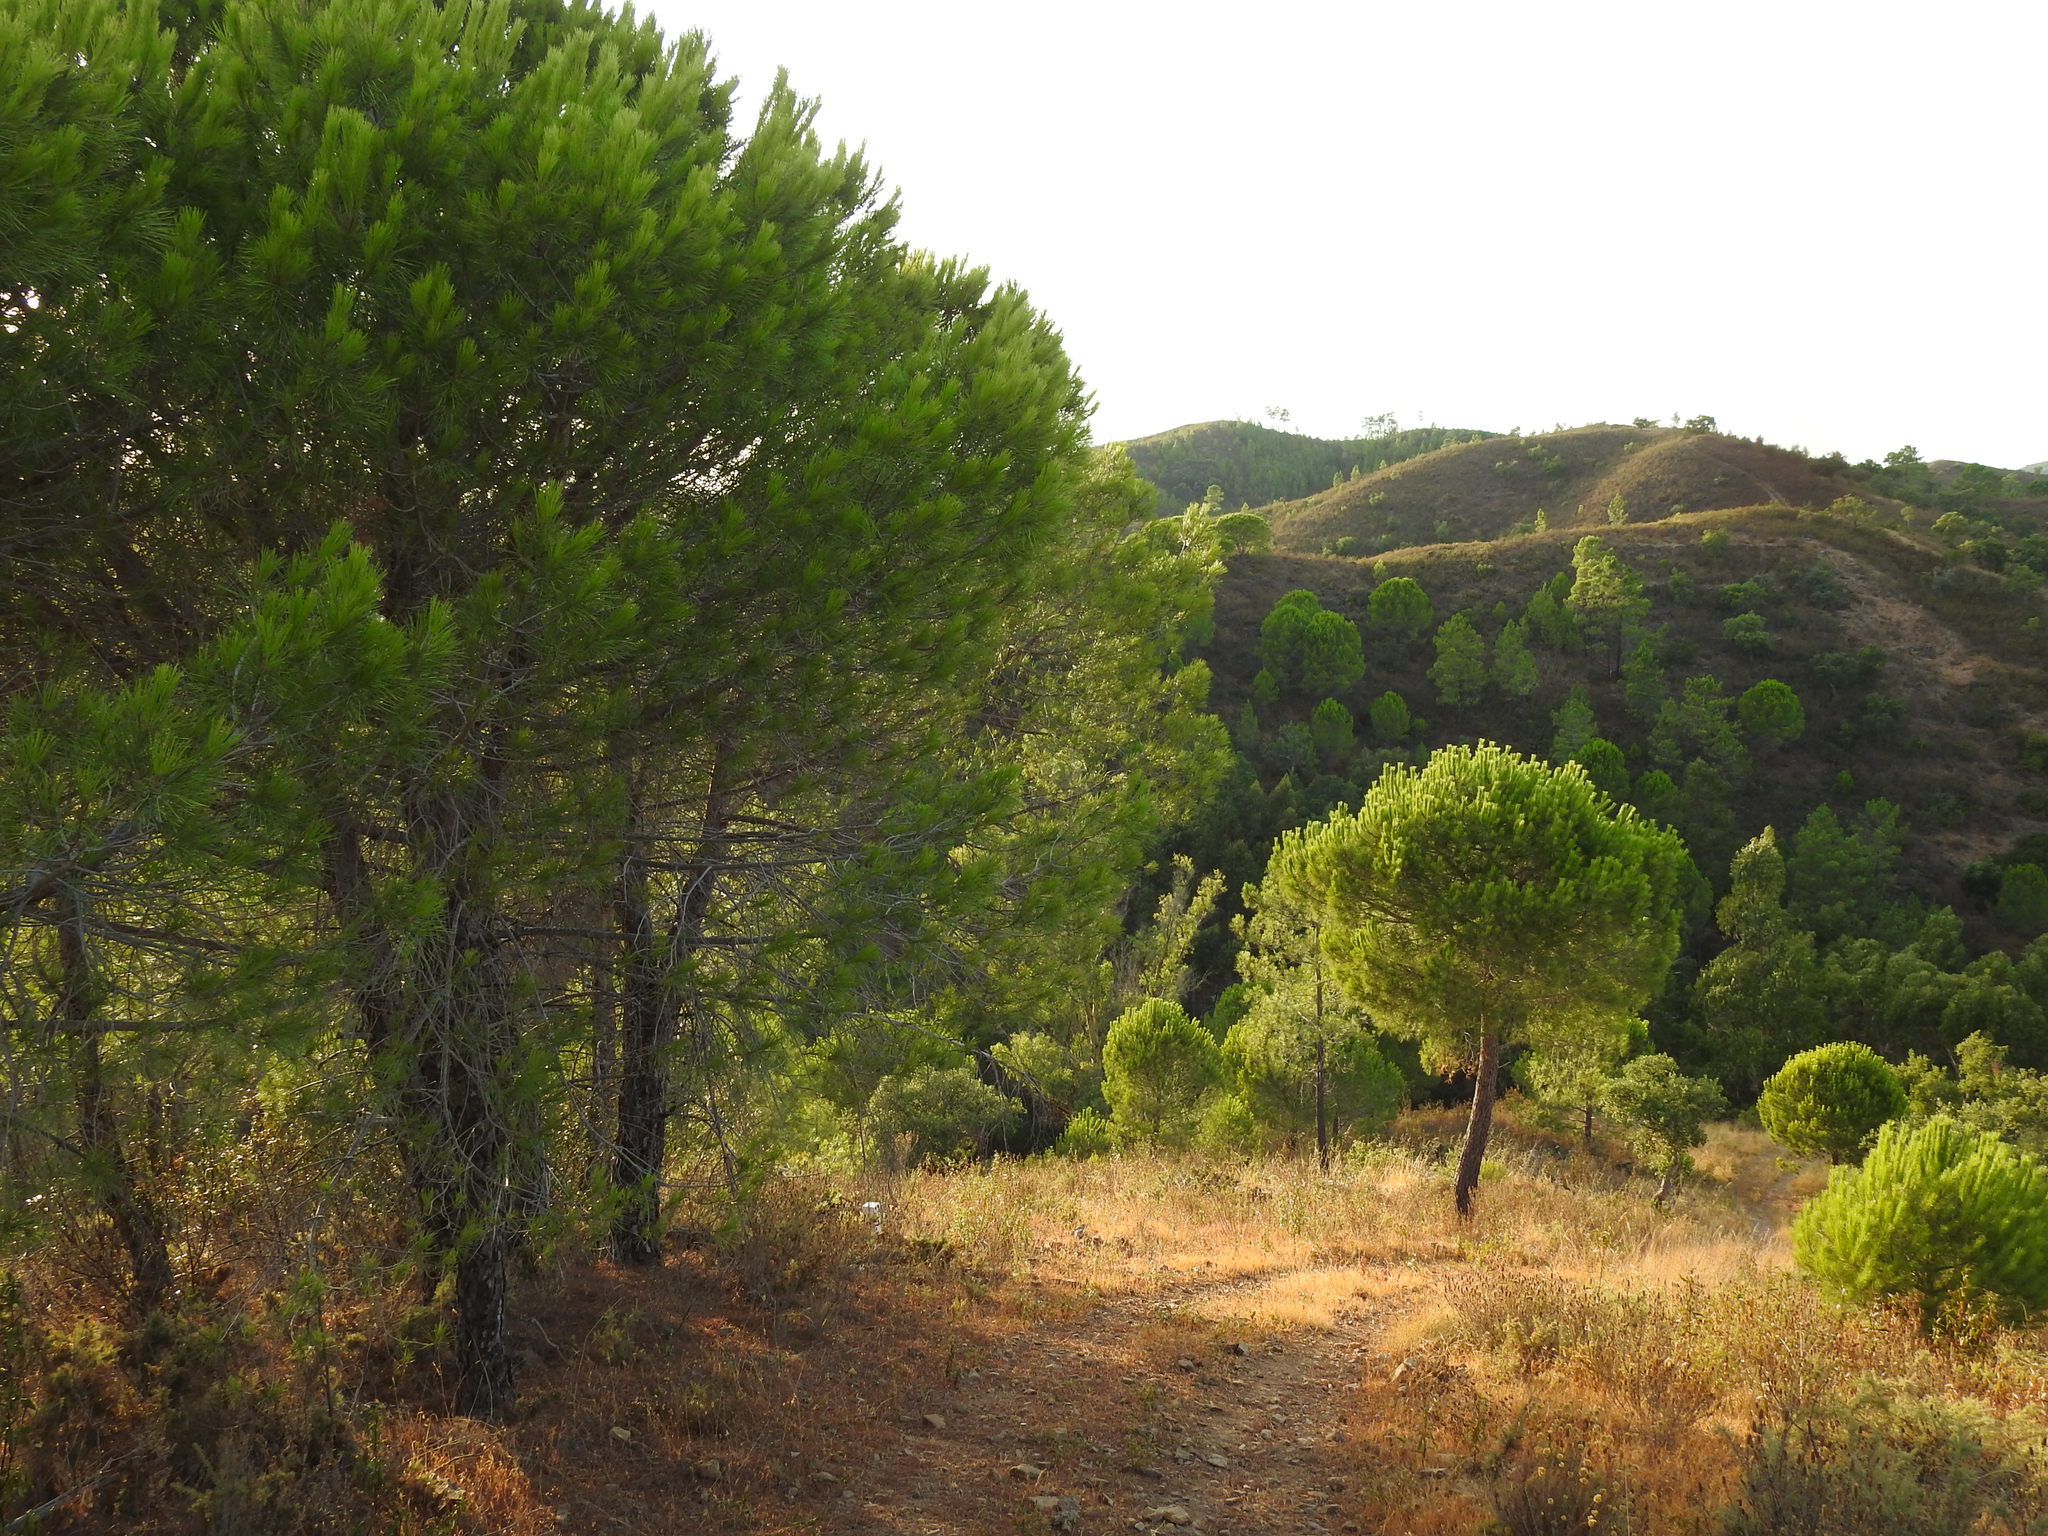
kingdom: Plantae
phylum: Tracheophyta
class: Pinopsida
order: Pinales
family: Pinaceae
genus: Pinus
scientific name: Pinus pinea
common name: Italian stone pine
